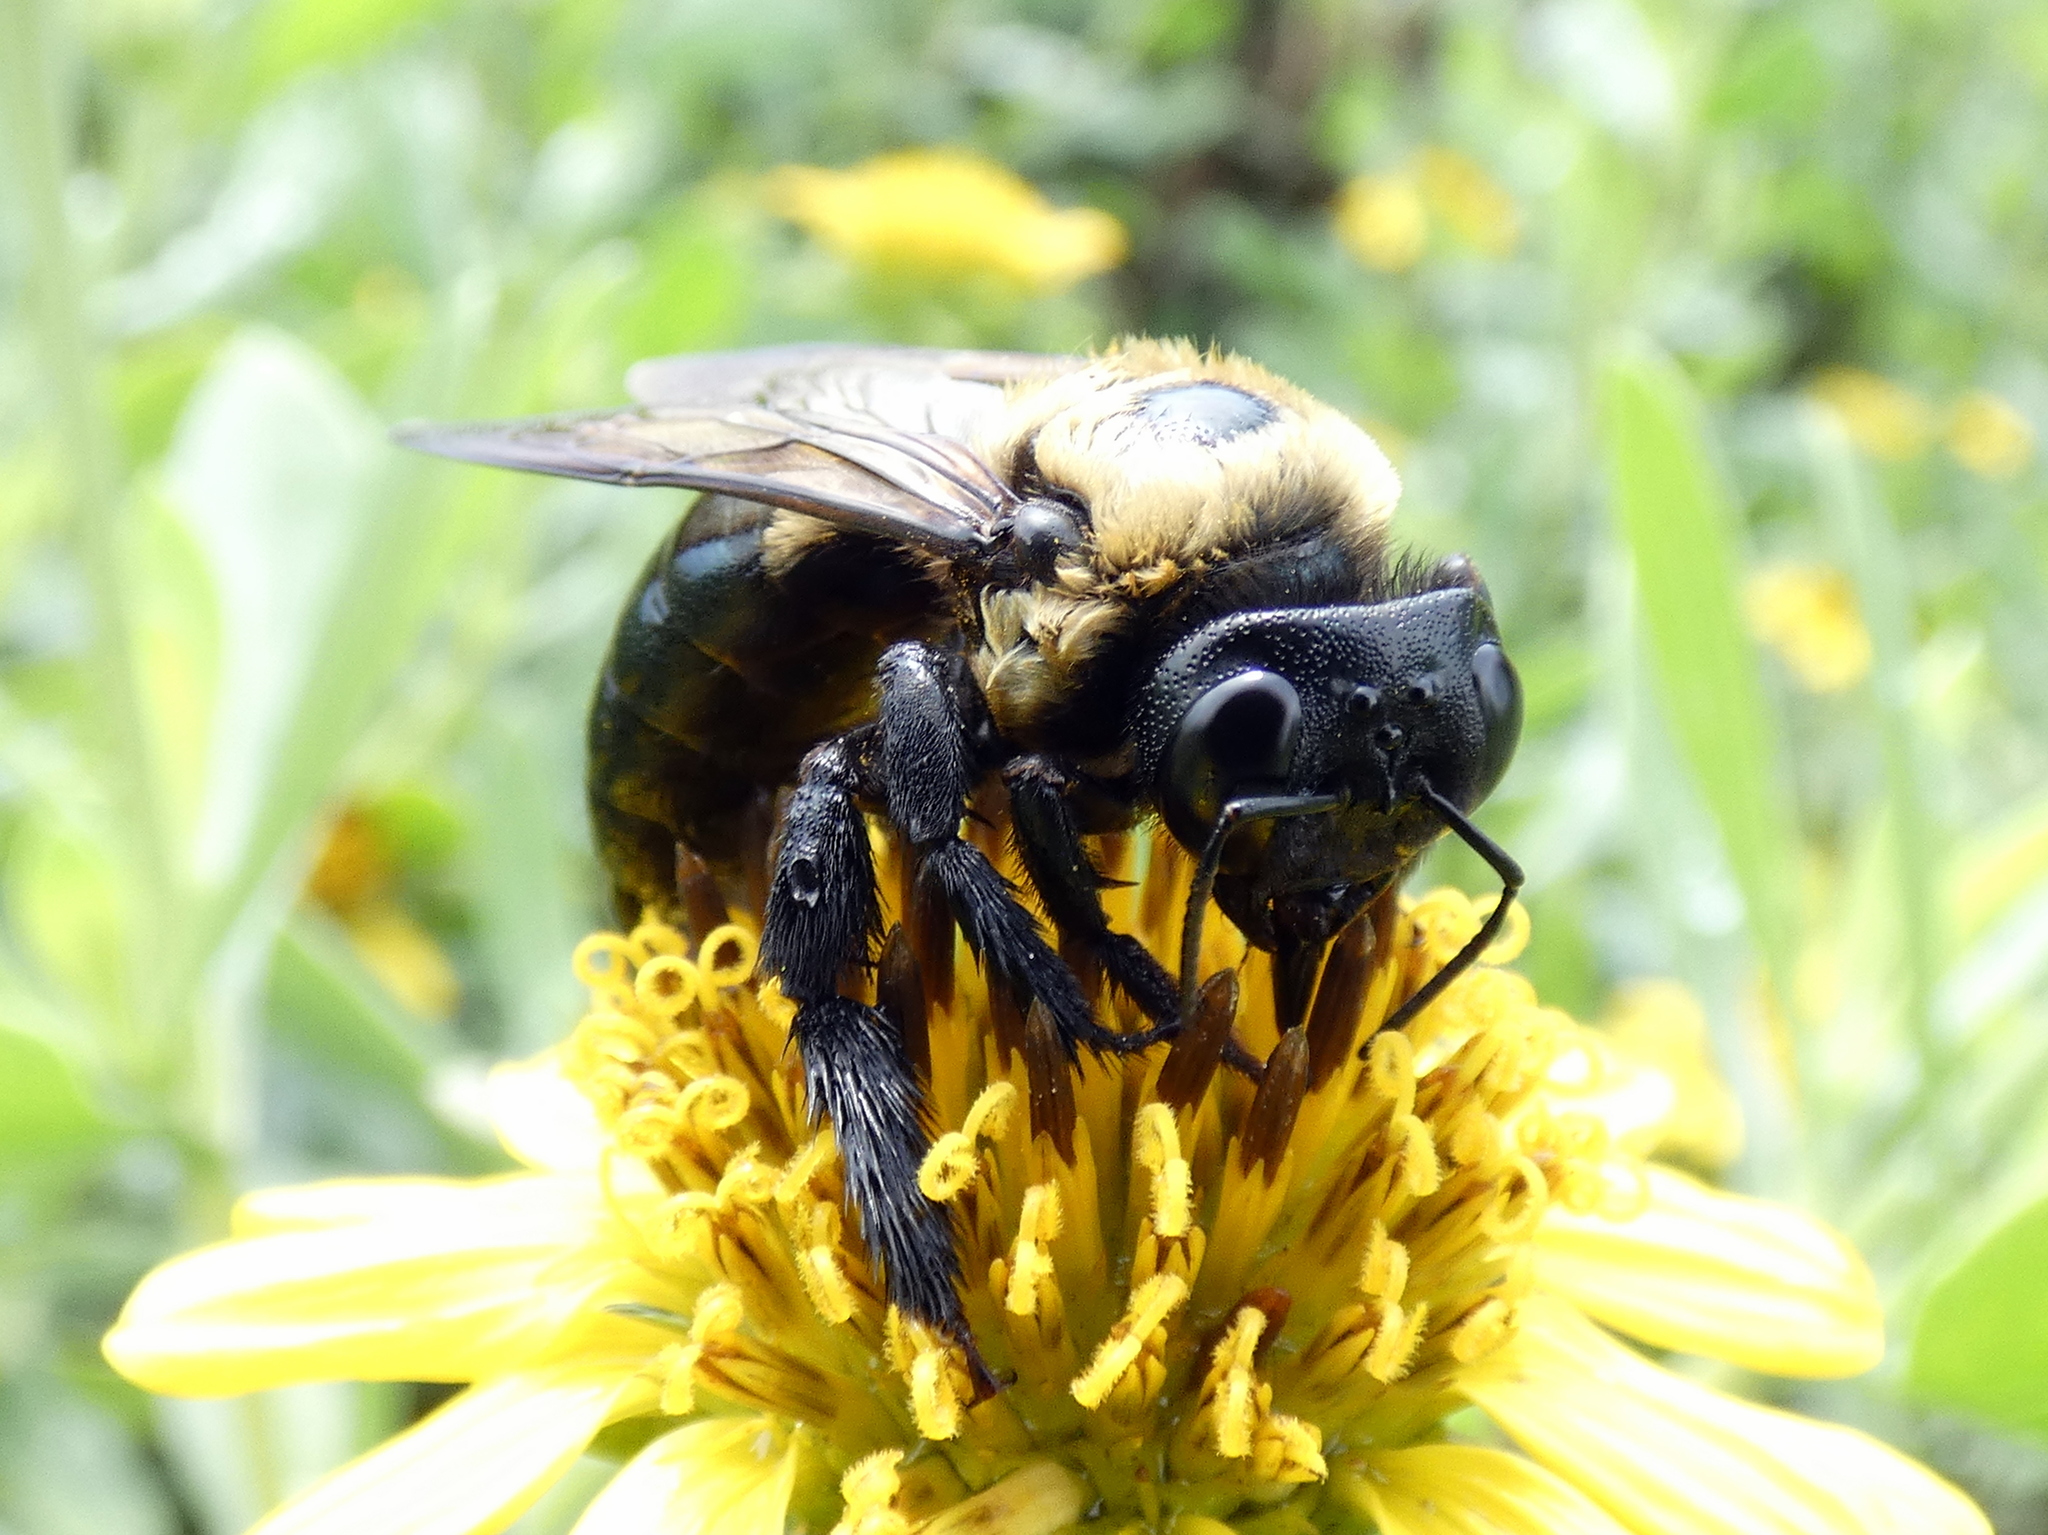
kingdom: Animalia
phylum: Arthropoda
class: Insecta
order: Hymenoptera
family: Apidae
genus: Xylocopa
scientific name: Xylocopa virginica
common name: Carpenter bee
